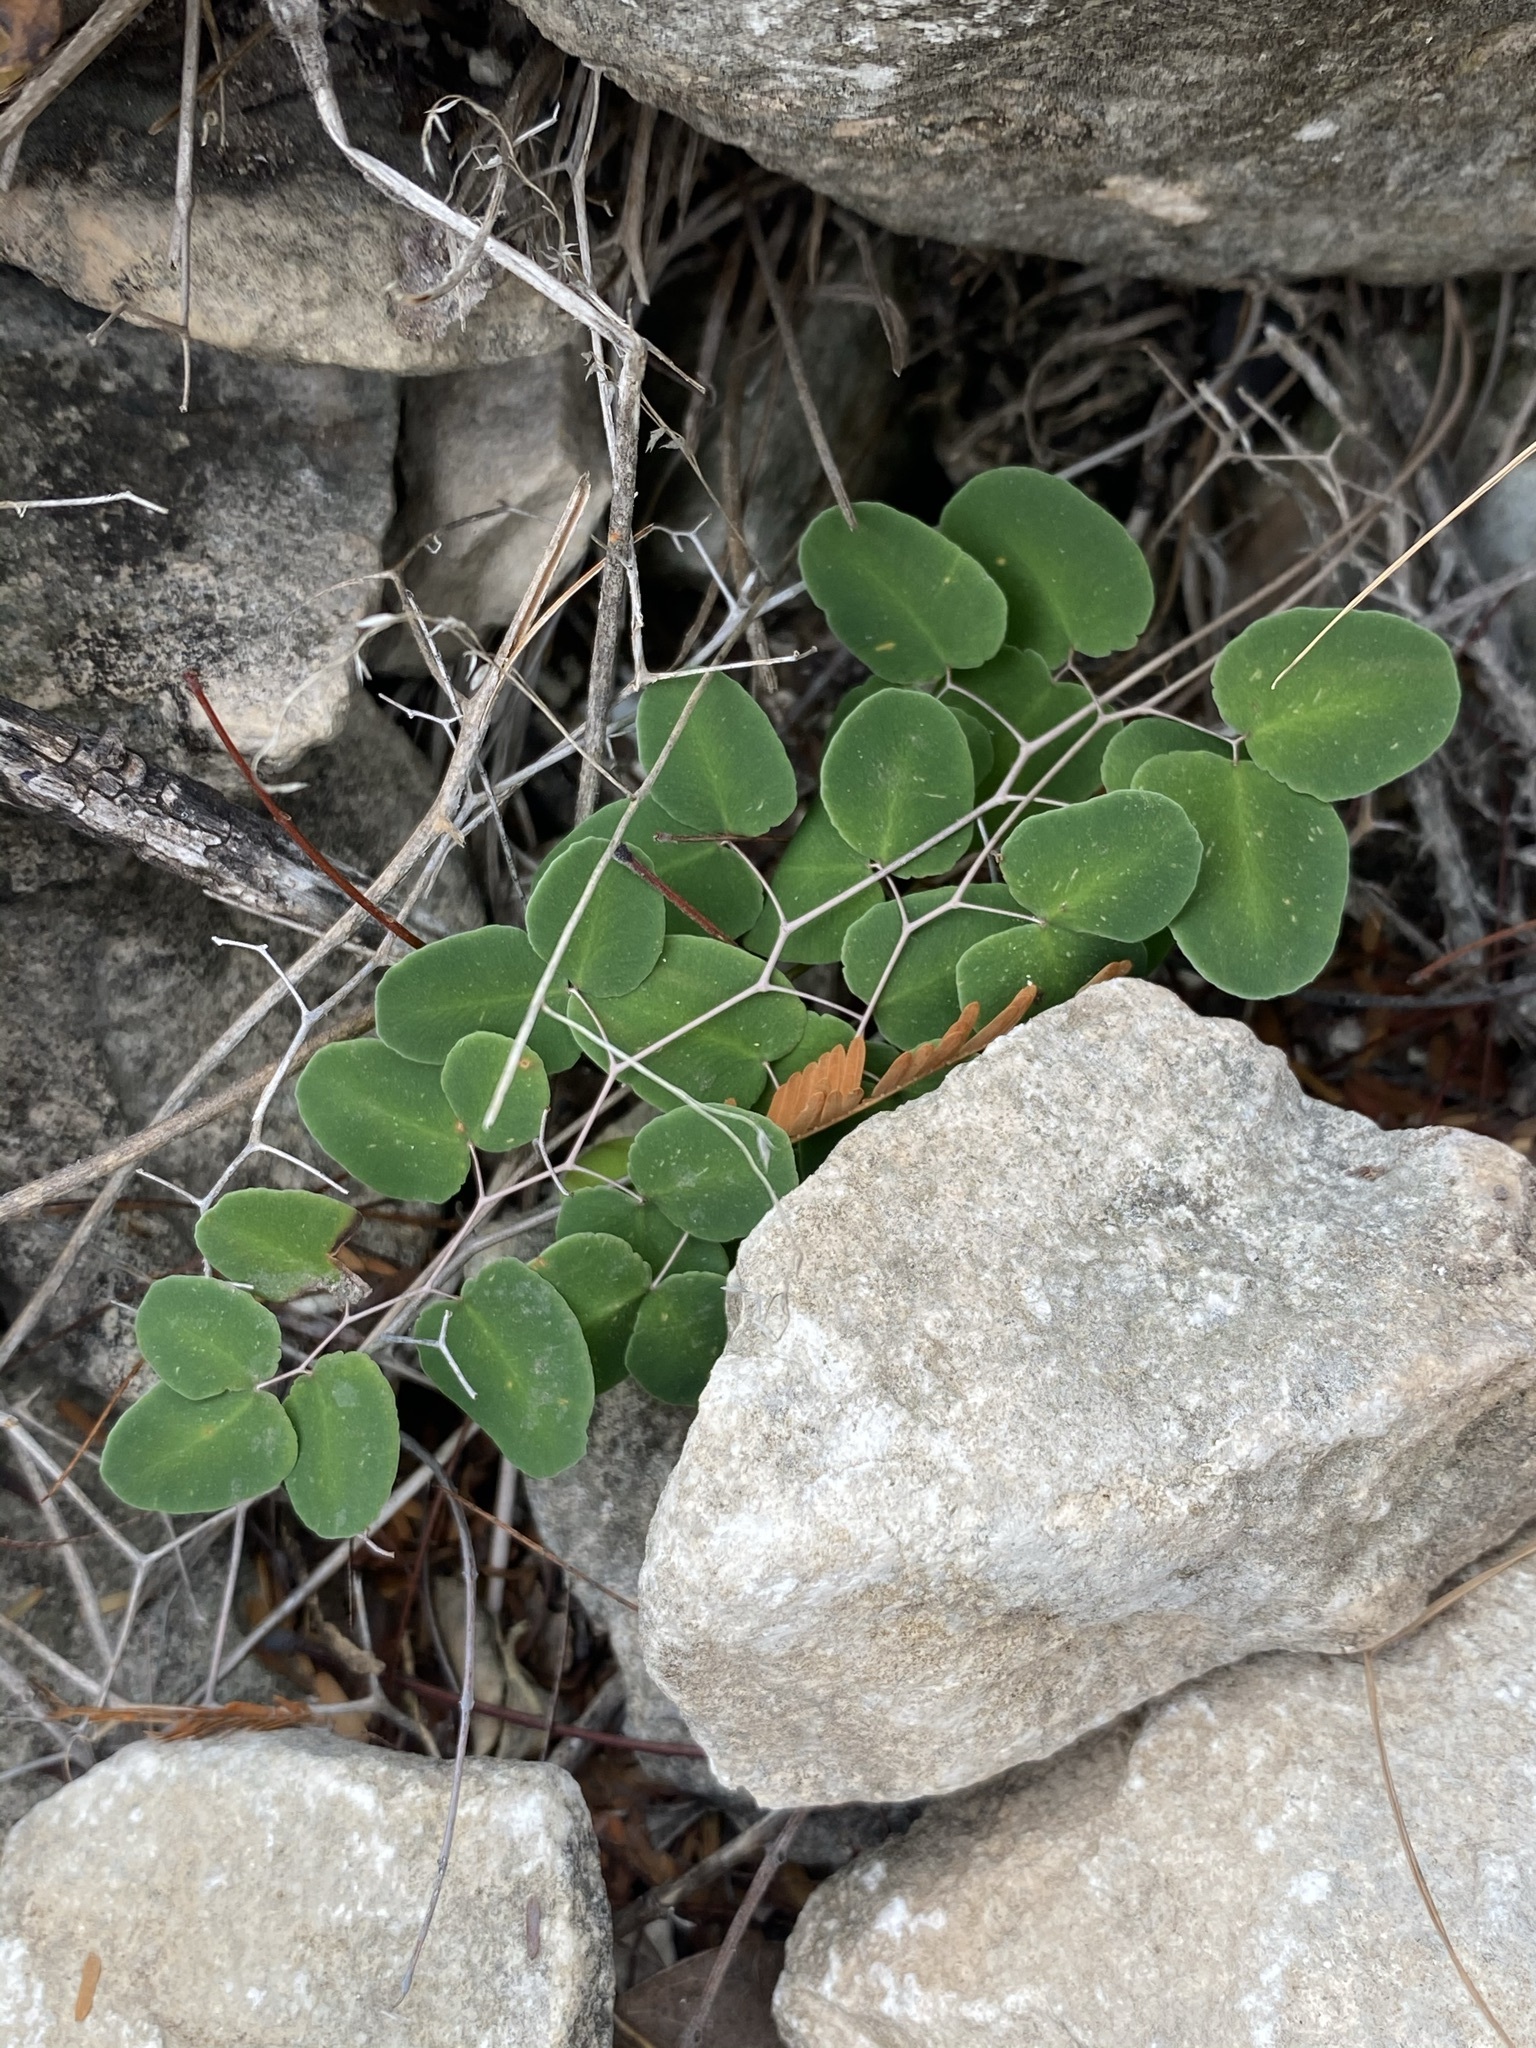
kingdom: Plantae
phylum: Tracheophyta
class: Polypodiopsida
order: Polypodiales
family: Pteridaceae
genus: Pellaea
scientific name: Pellaea ovata
